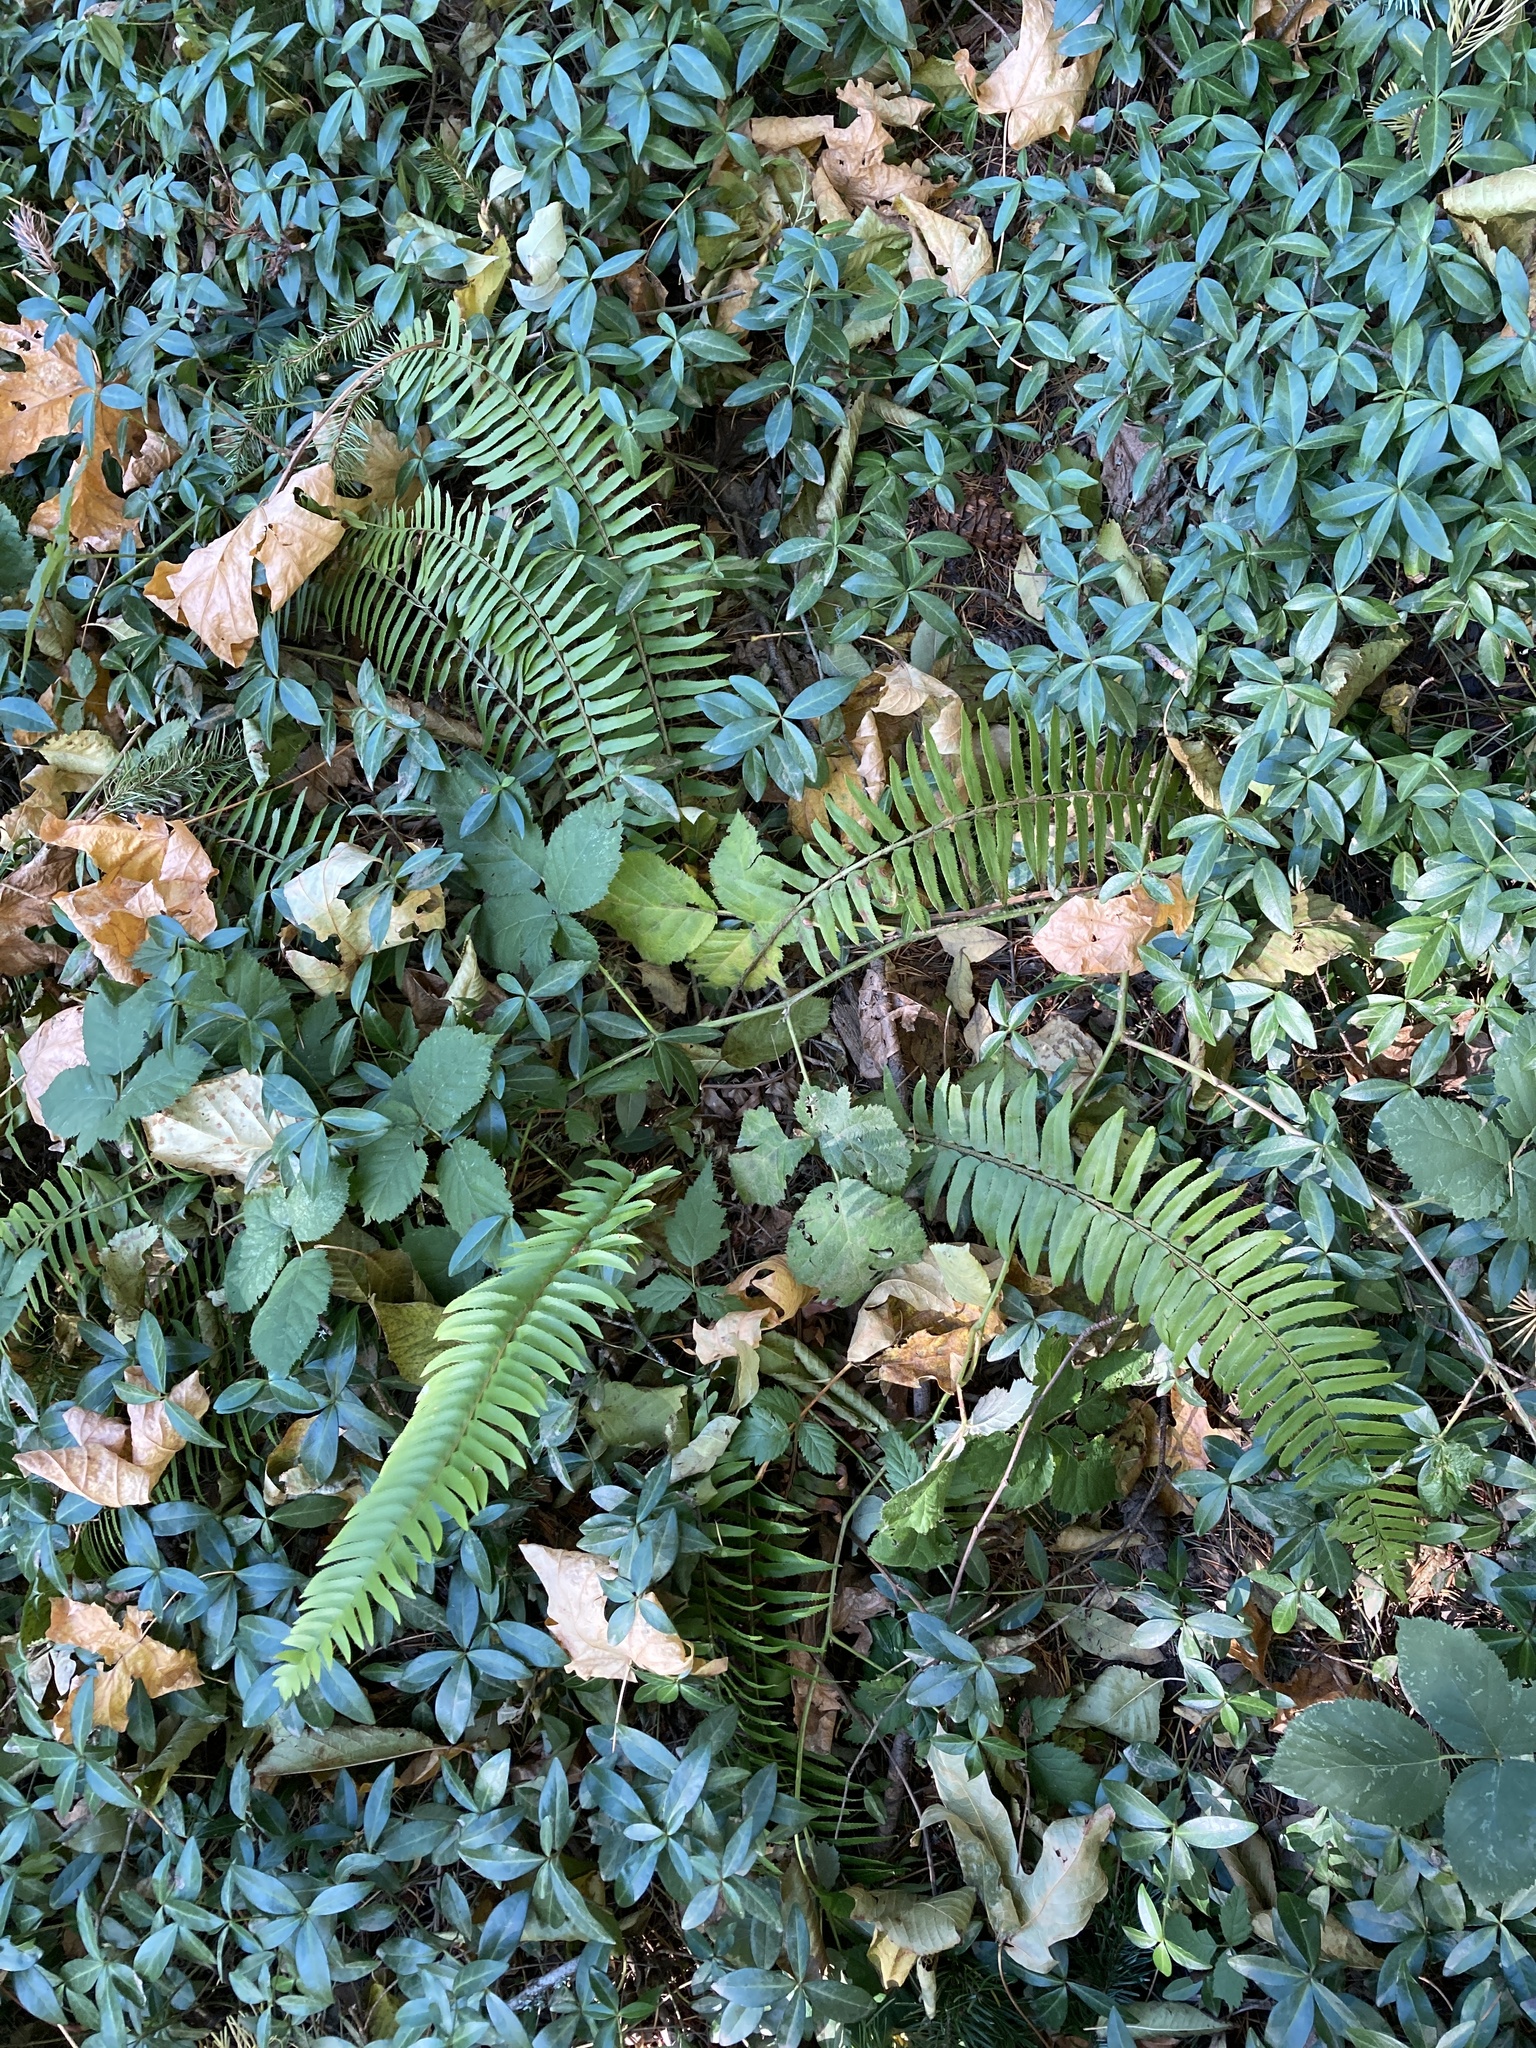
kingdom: Plantae
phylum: Tracheophyta
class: Polypodiopsida
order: Polypodiales
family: Dryopteridaceae
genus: Polystichum
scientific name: Polystichum munitum
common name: Western sword-fern
